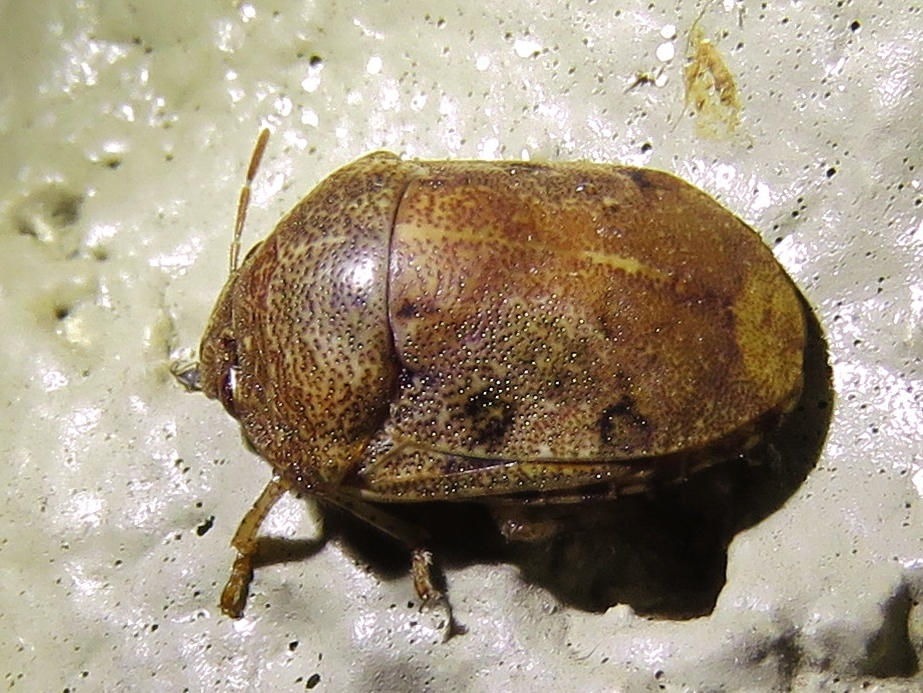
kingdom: Animalia
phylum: Arthropoda
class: Insecta
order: Hemiptera
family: Scutelleridae
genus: Symphylus
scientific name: Symphylus caribbeanus
